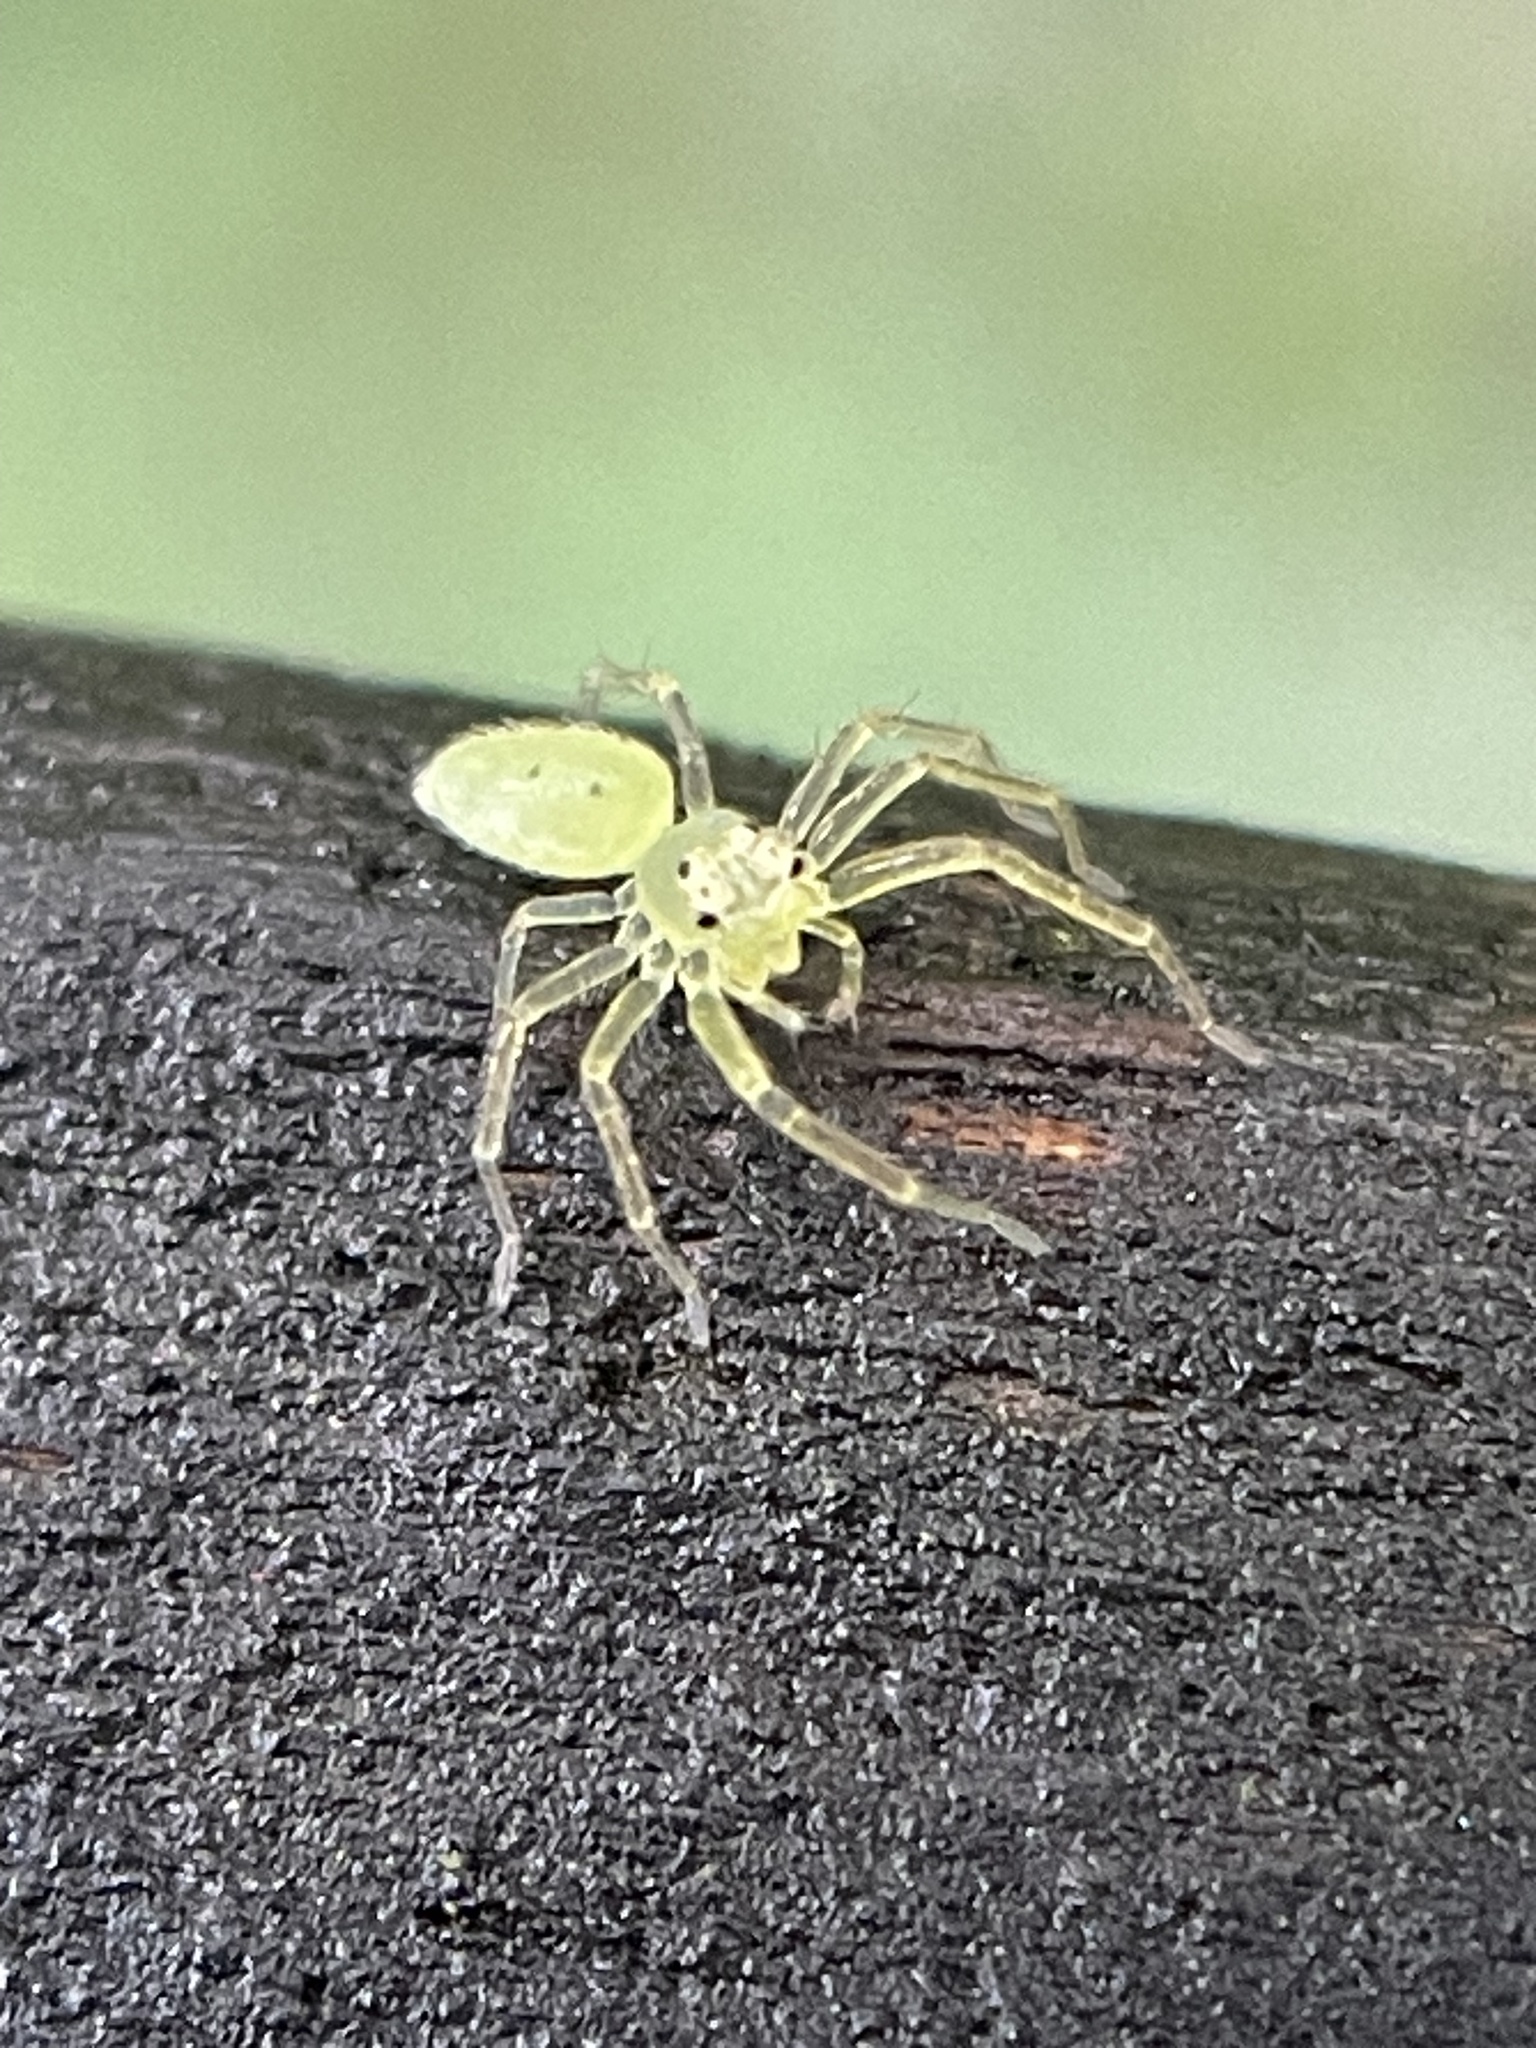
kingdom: Animalia
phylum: Arthropoda
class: Arachnida
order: Araneae
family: Salticidae
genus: Lyssomanes
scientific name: Lyssomanes viridis
